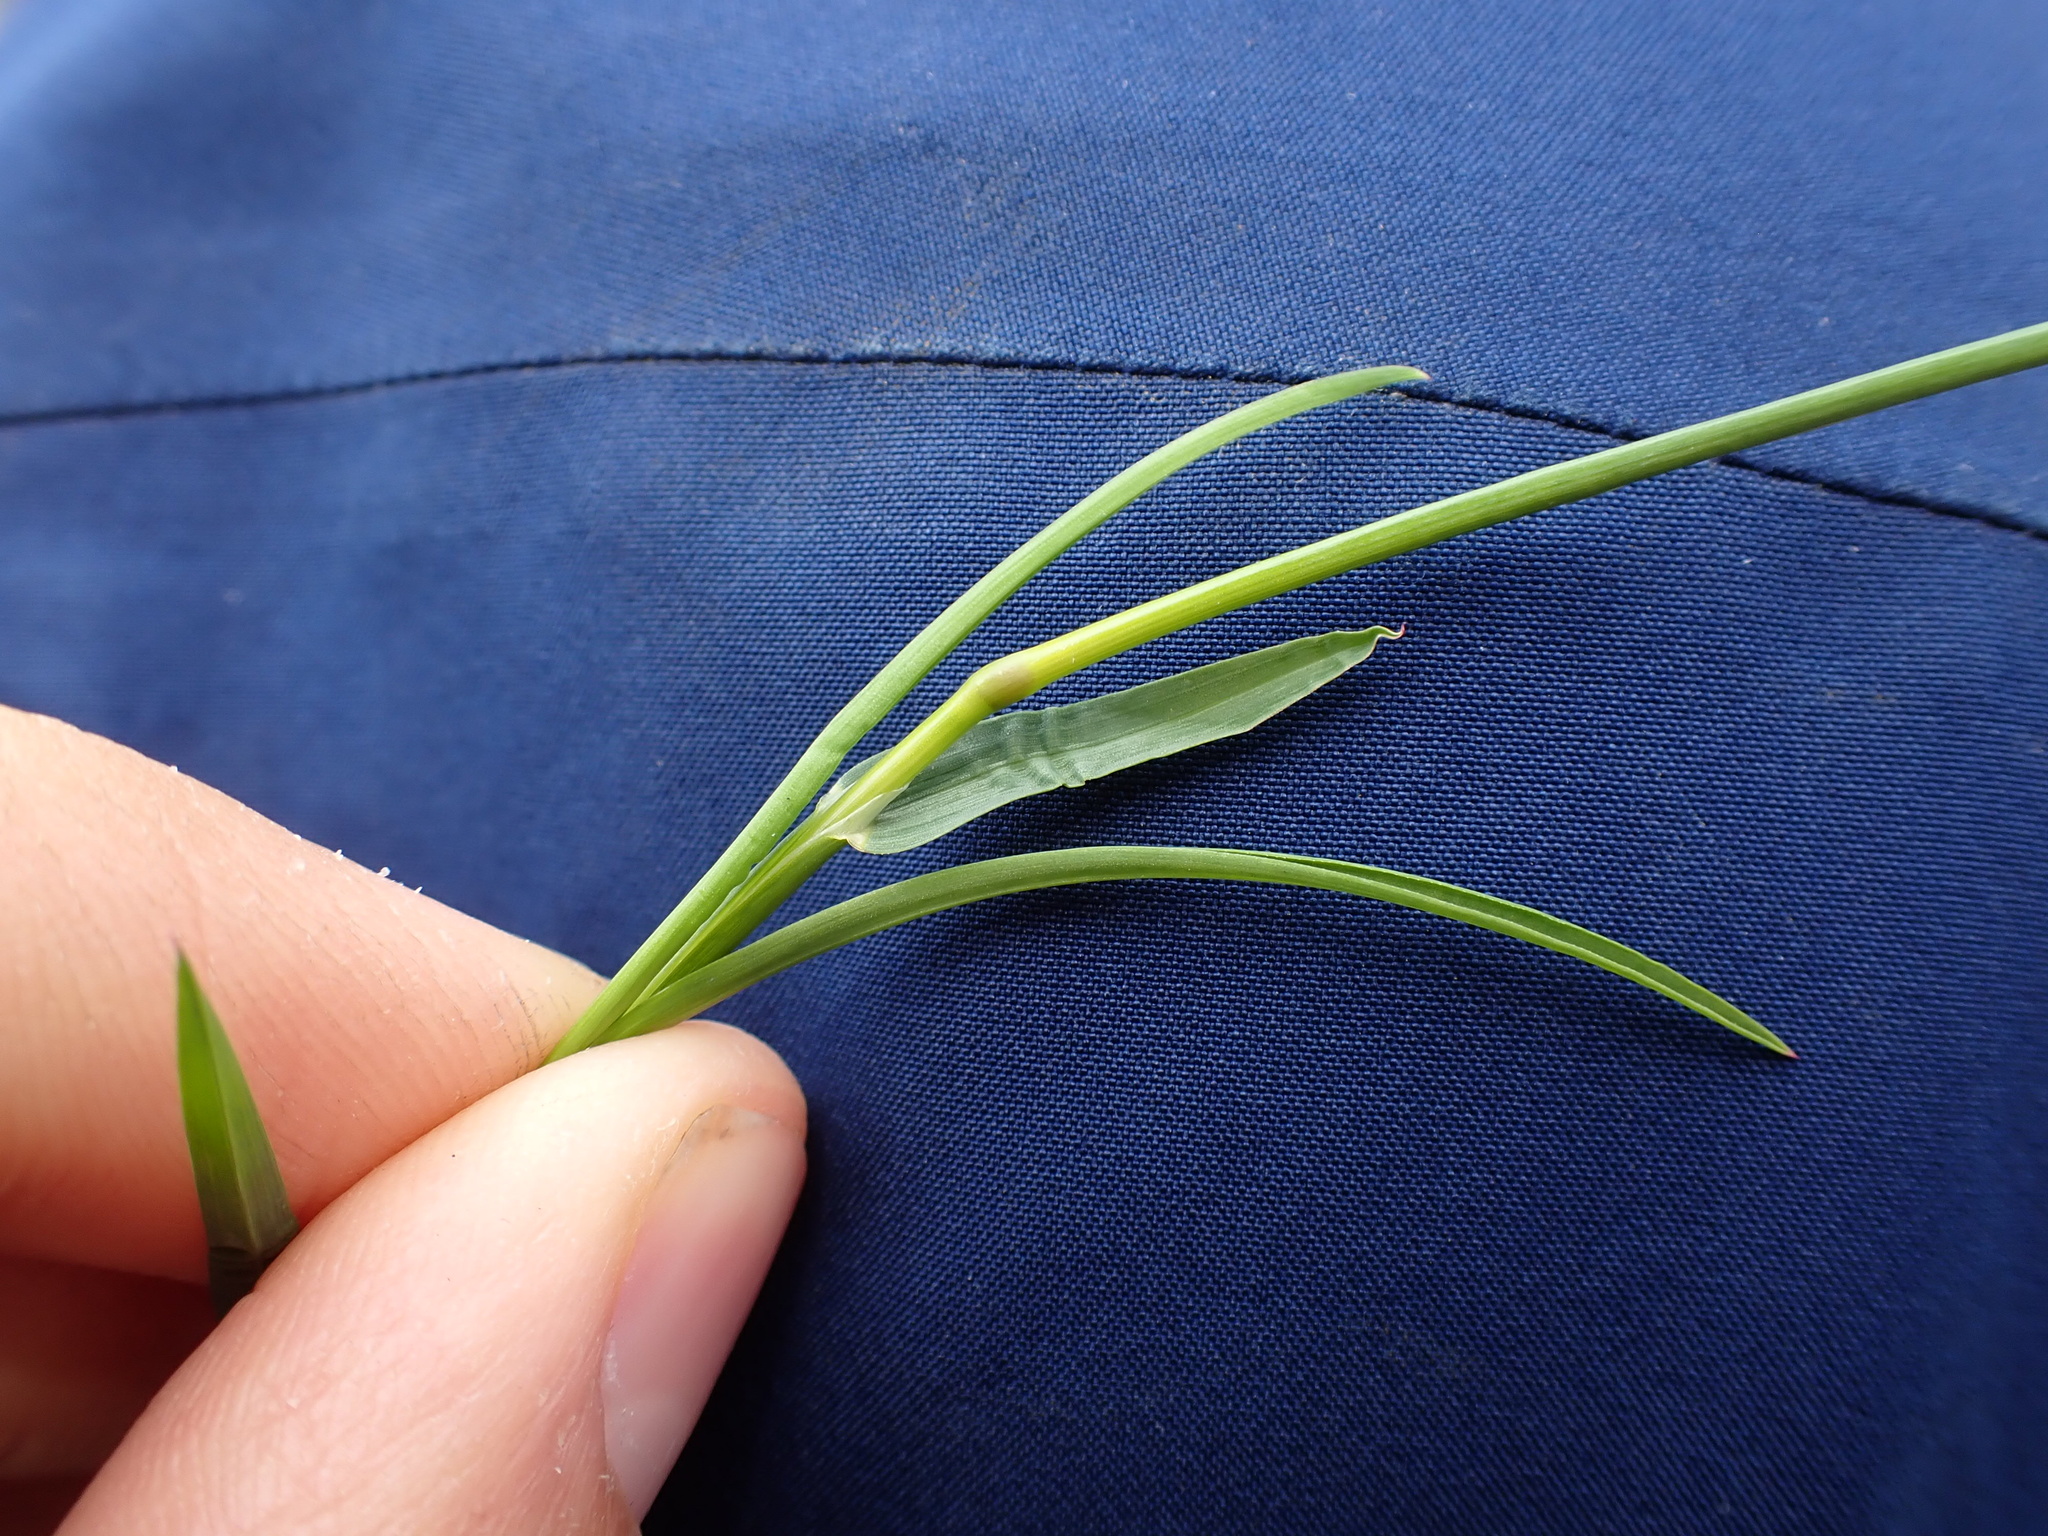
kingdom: Plantae
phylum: Tracheophyta
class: Liliopsida
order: Poales
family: Poaceae
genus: Poa
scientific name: Poa annua
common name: Annual bluegrass
